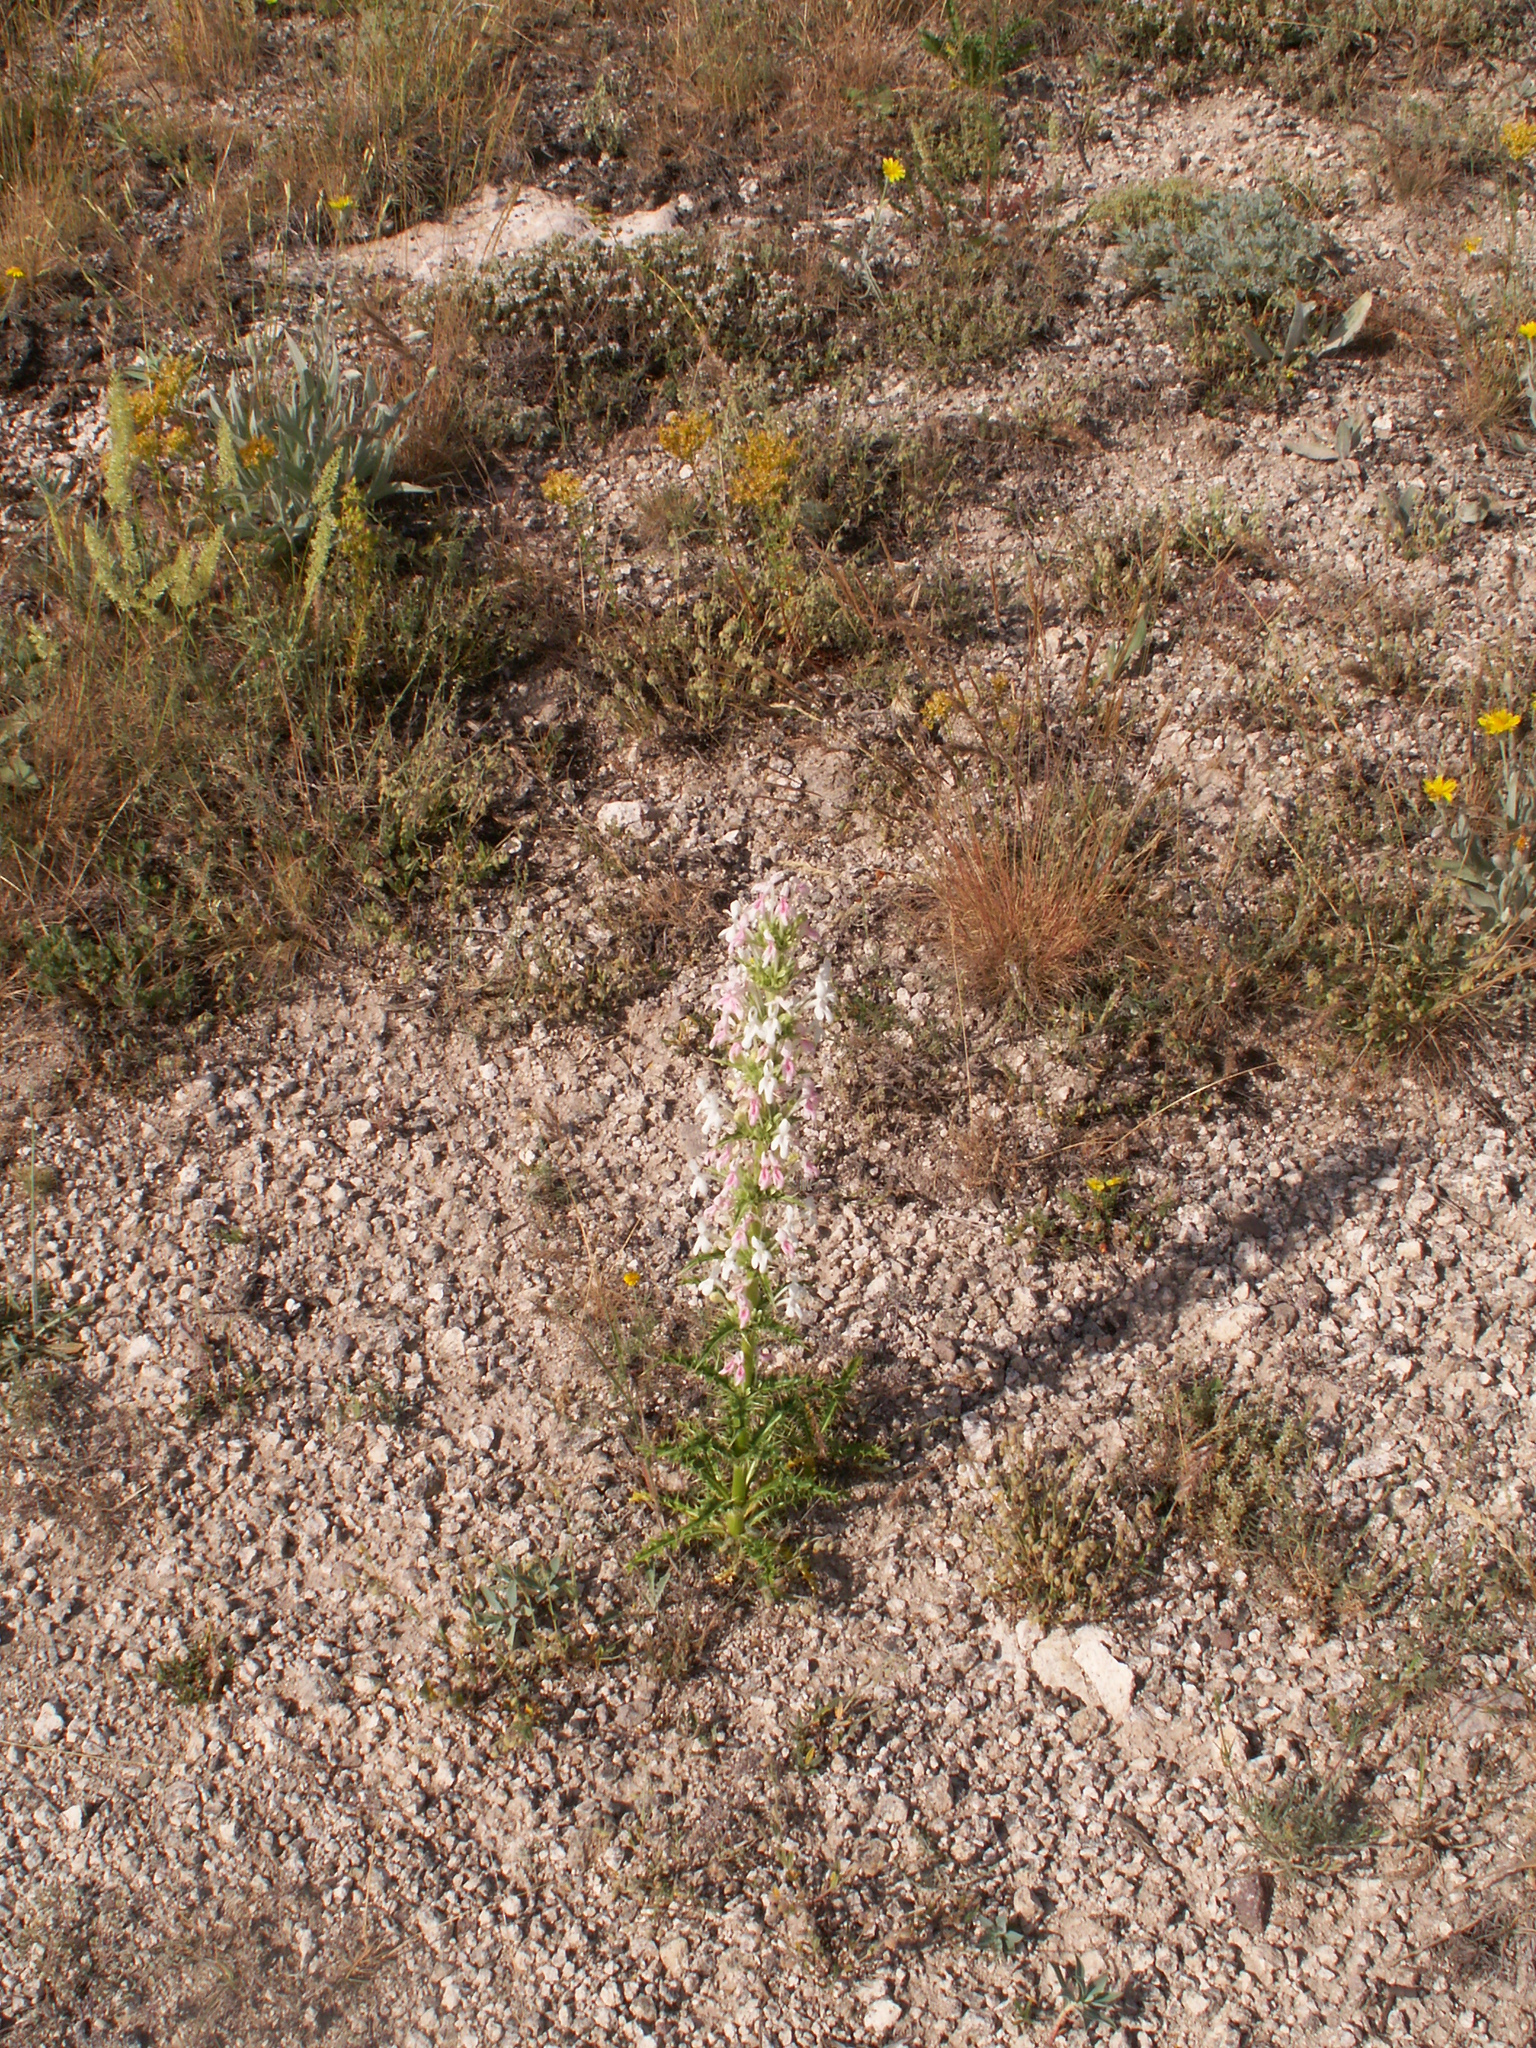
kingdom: Plantae
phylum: Tracheophyta
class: Magnoliopsida
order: Dipsacales
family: Caprifoliaceae
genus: Morina
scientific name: Morina persica
